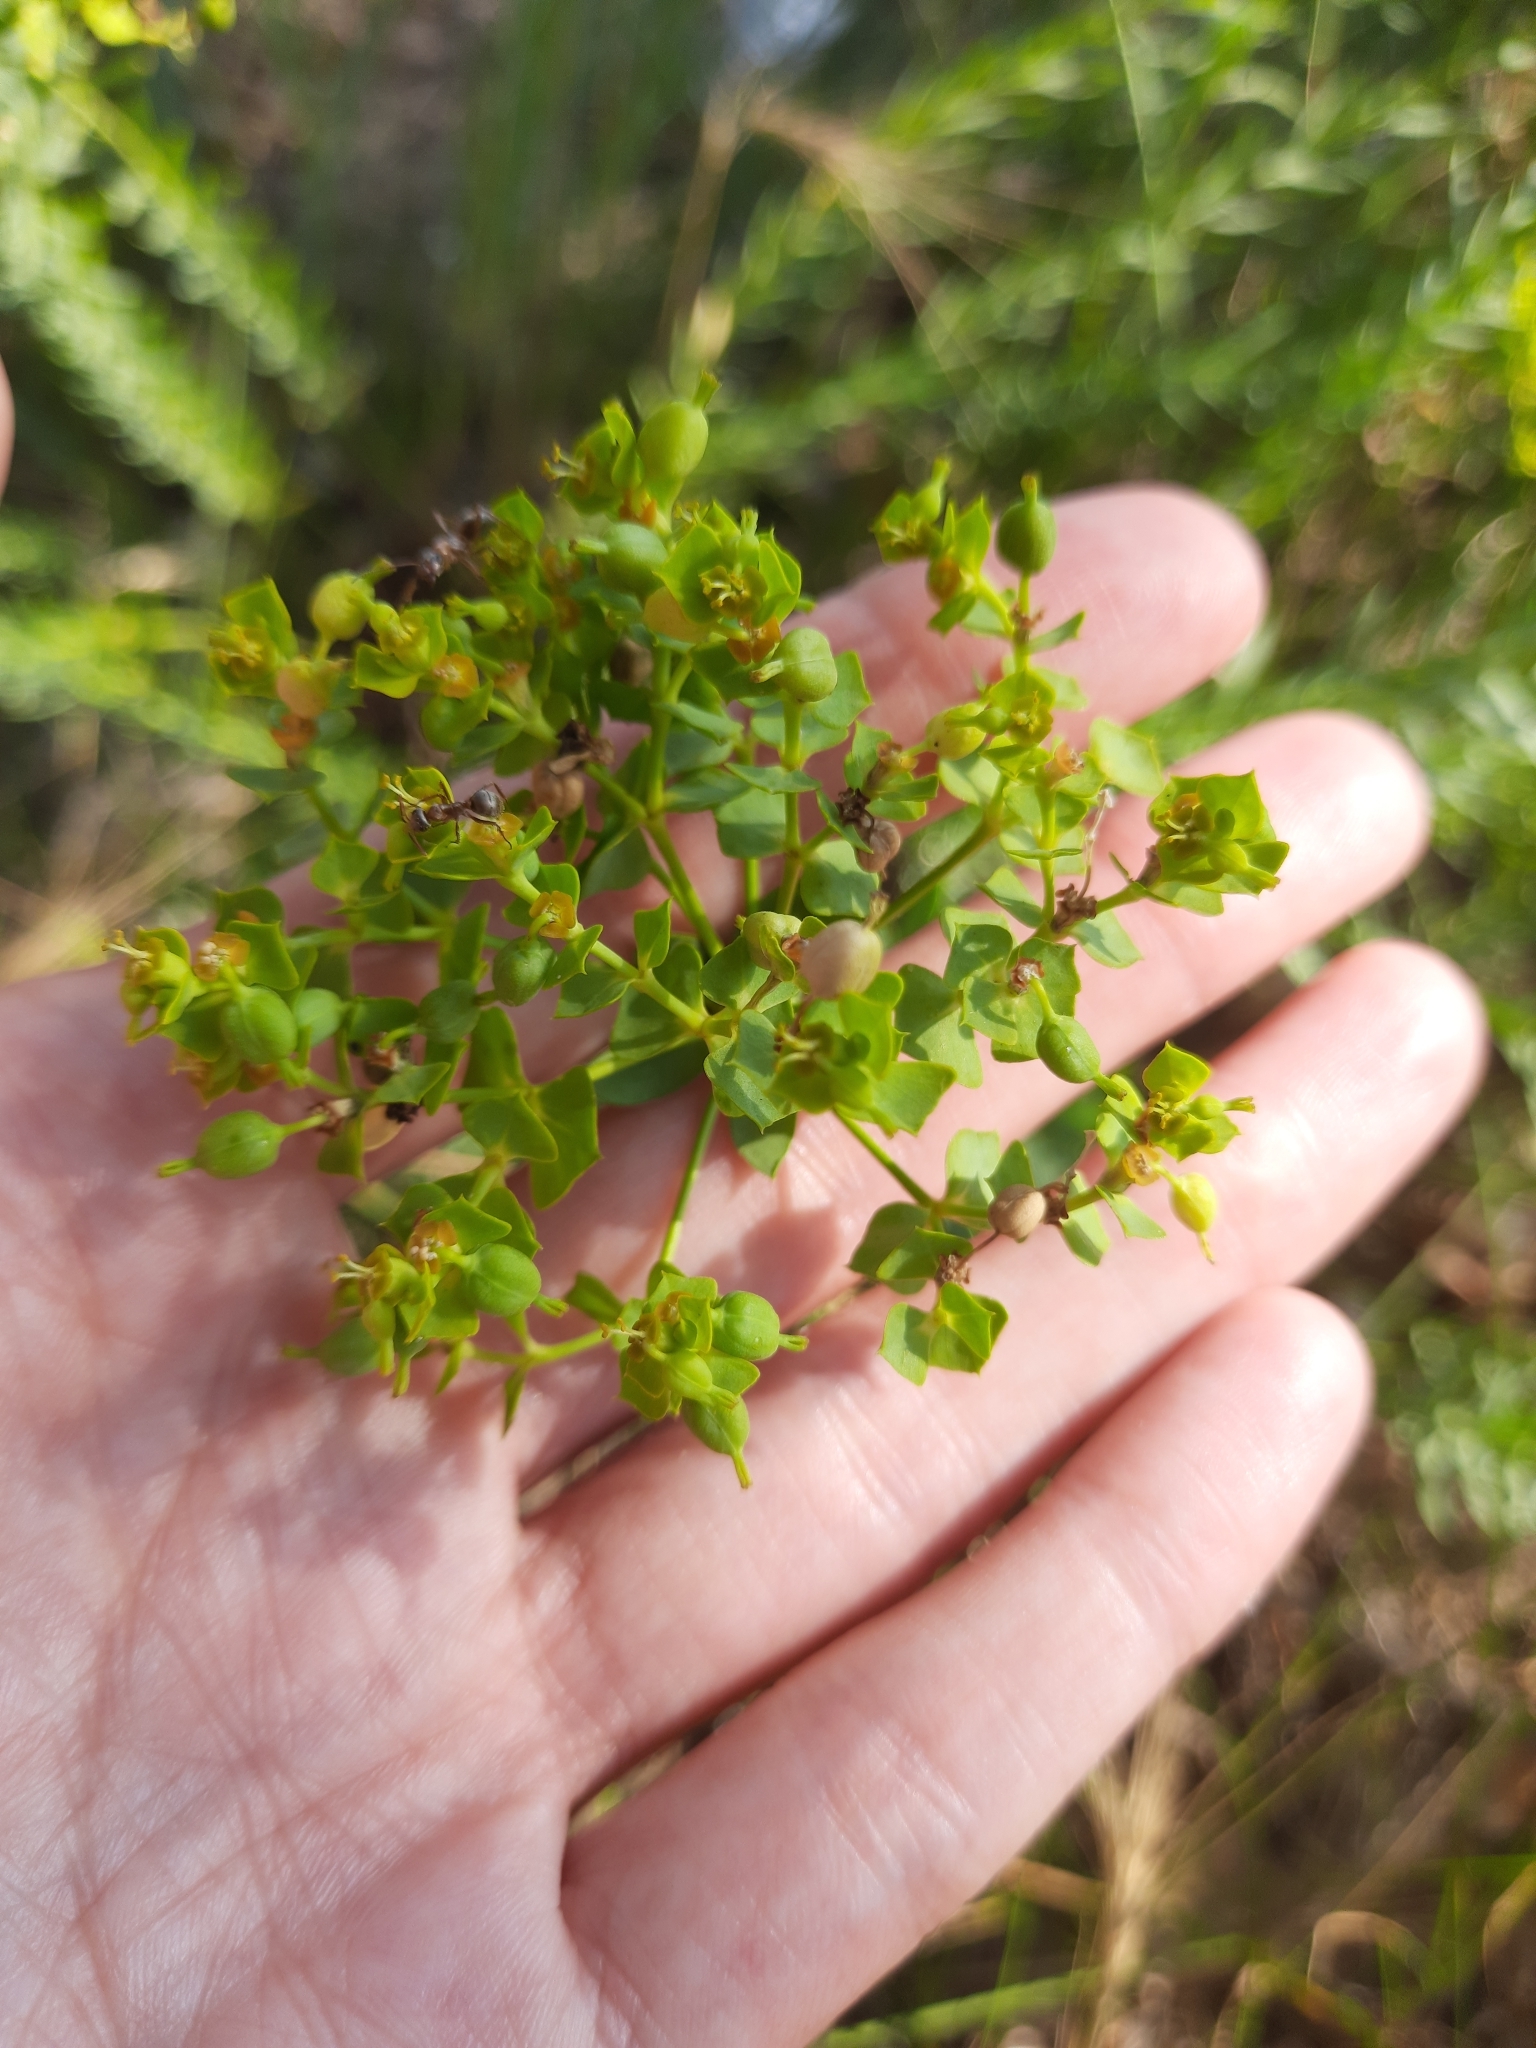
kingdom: Plantae
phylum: Tracheophyta
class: Magnoliopsida
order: Malpighiales
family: Euphorbiaceae
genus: Euphorbia
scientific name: Euphorbia seguieriana
